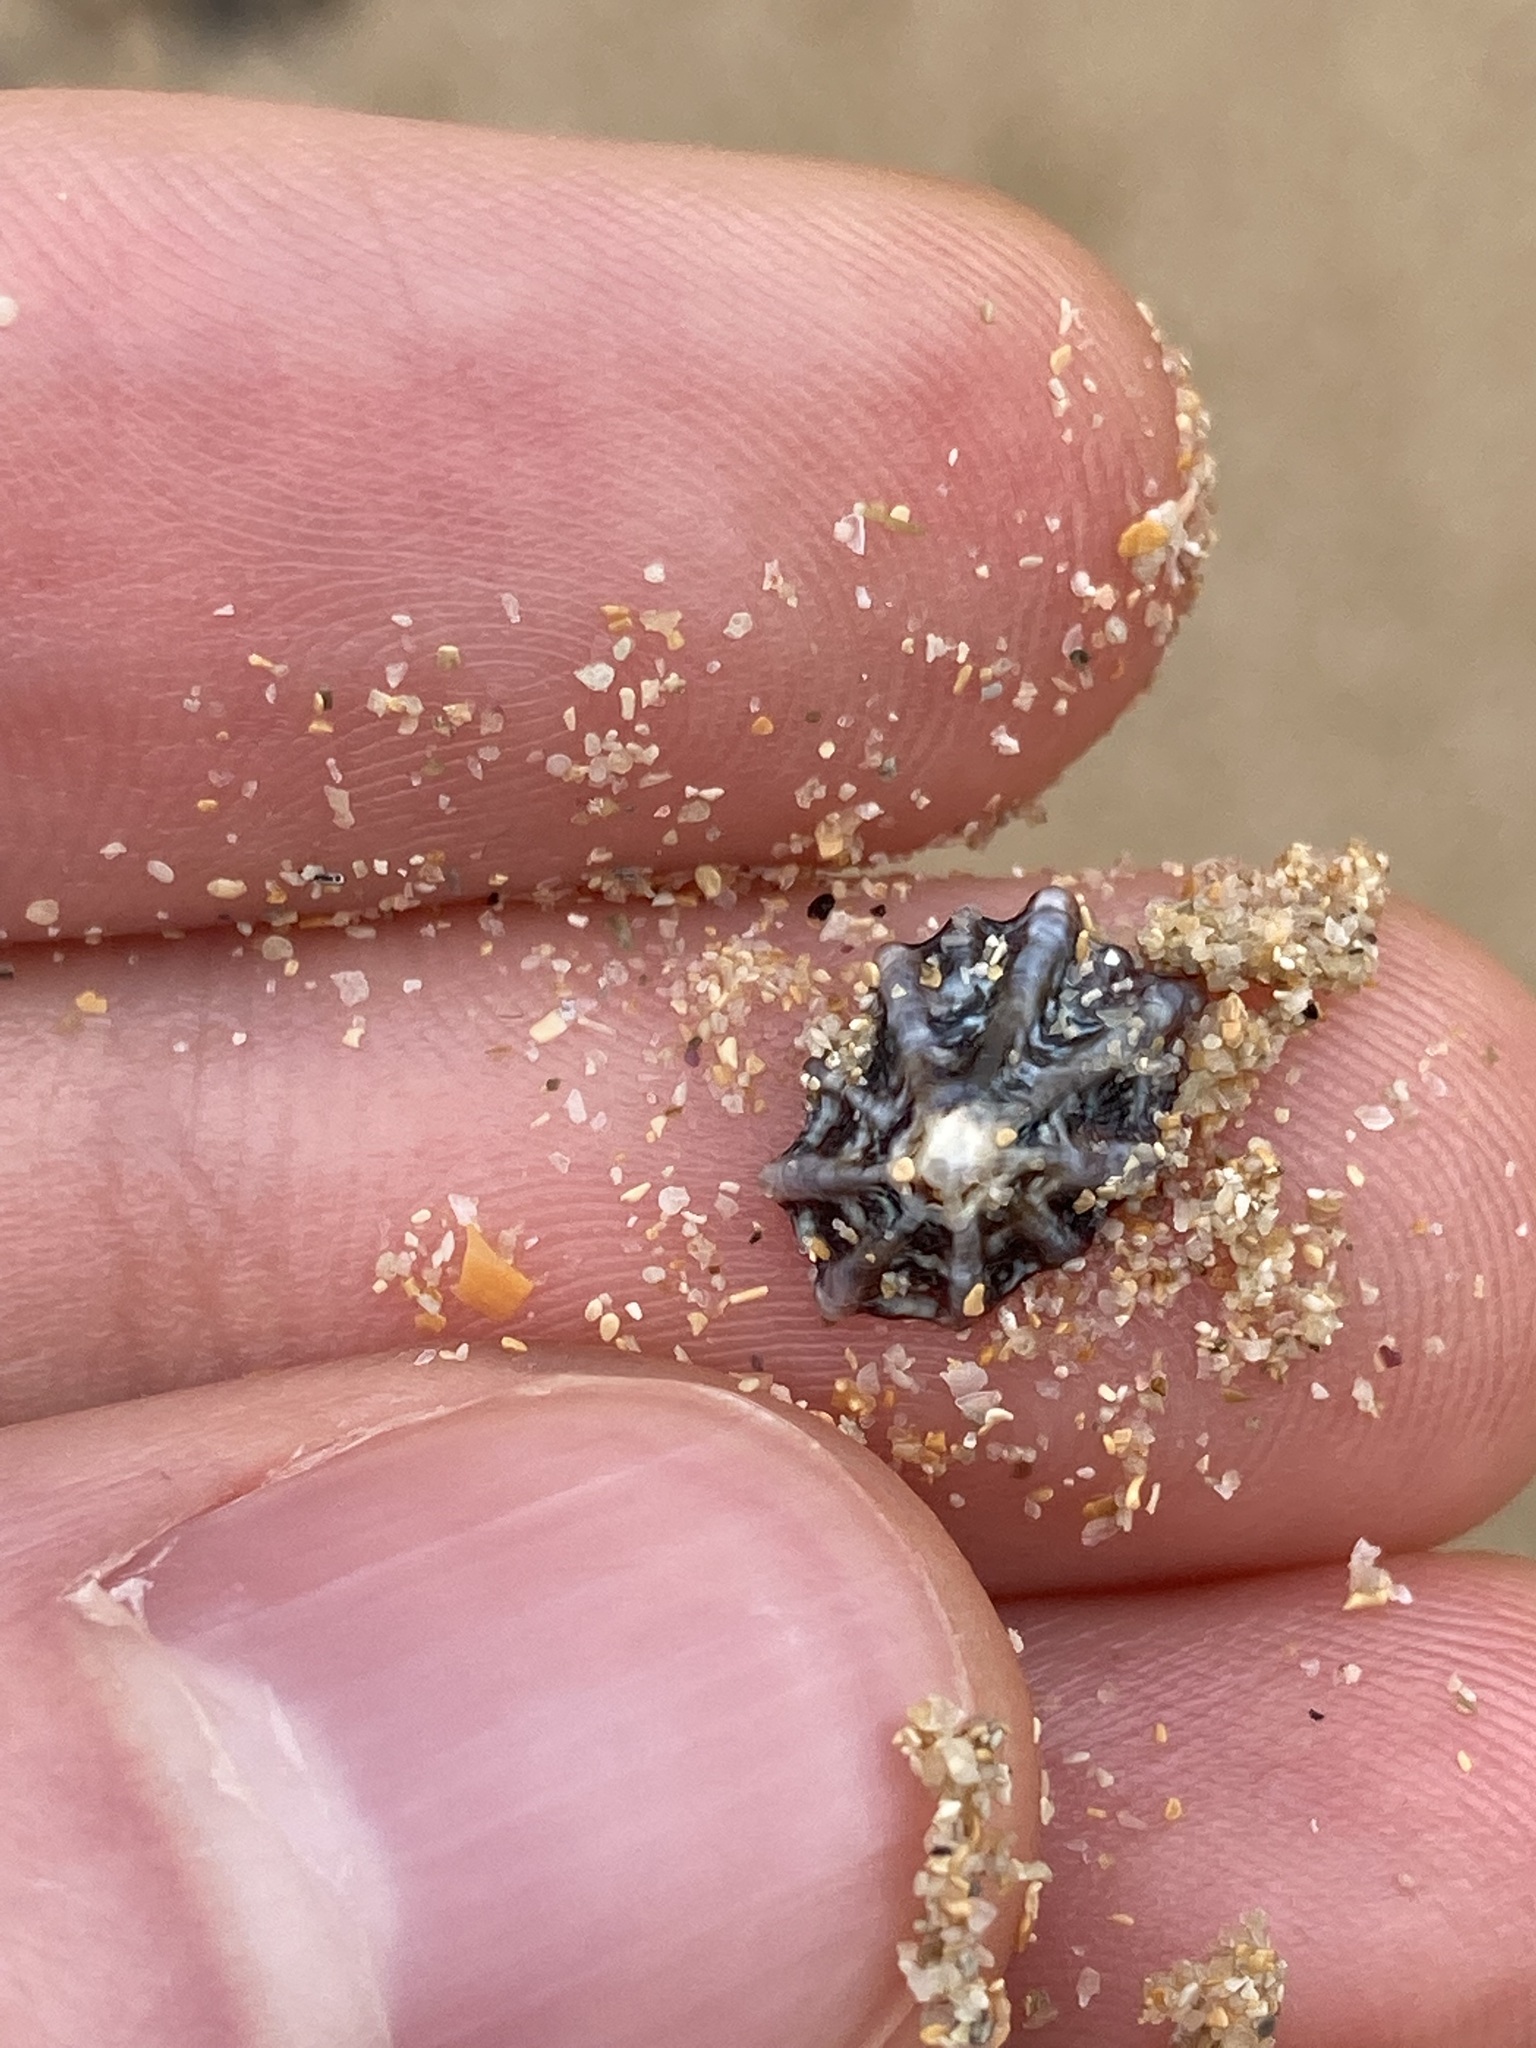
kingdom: Animalia
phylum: Mollusca
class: Gastropoda
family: Lottiidae
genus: Patelloida
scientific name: Patelloida alticostata
